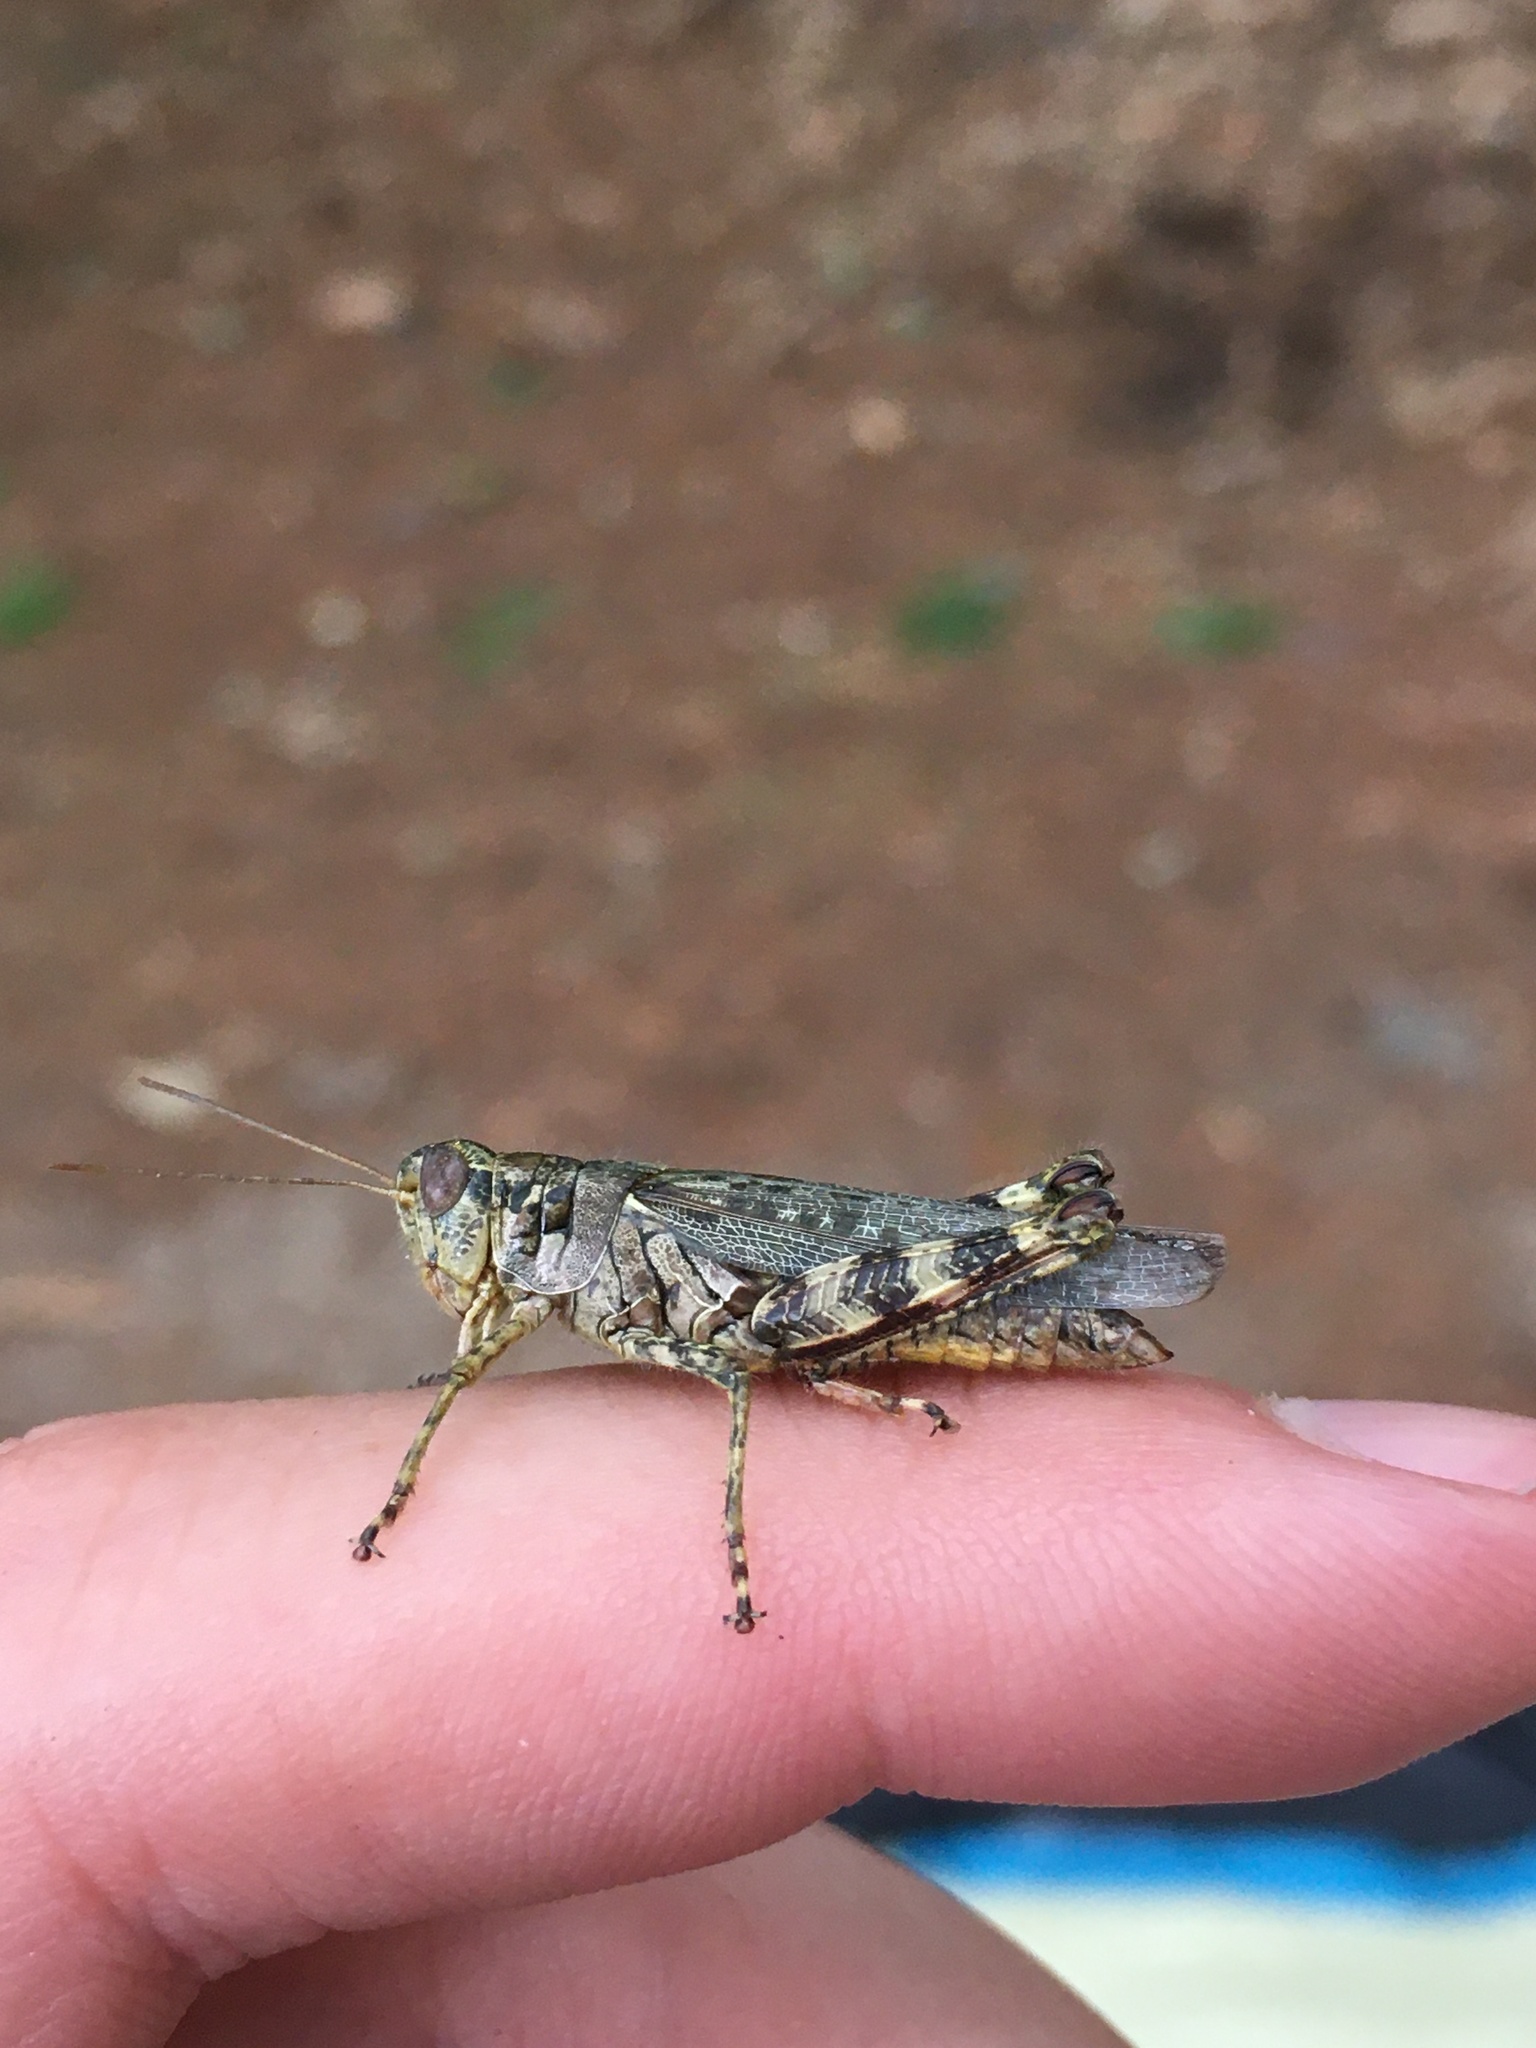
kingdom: Animalia
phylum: Arthropoda
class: Insecta
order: Orthoptera
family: Acrididae
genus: Melanoplus
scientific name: Melanoplus punctulatus
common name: Pine-tree spur-throat grasshopper
